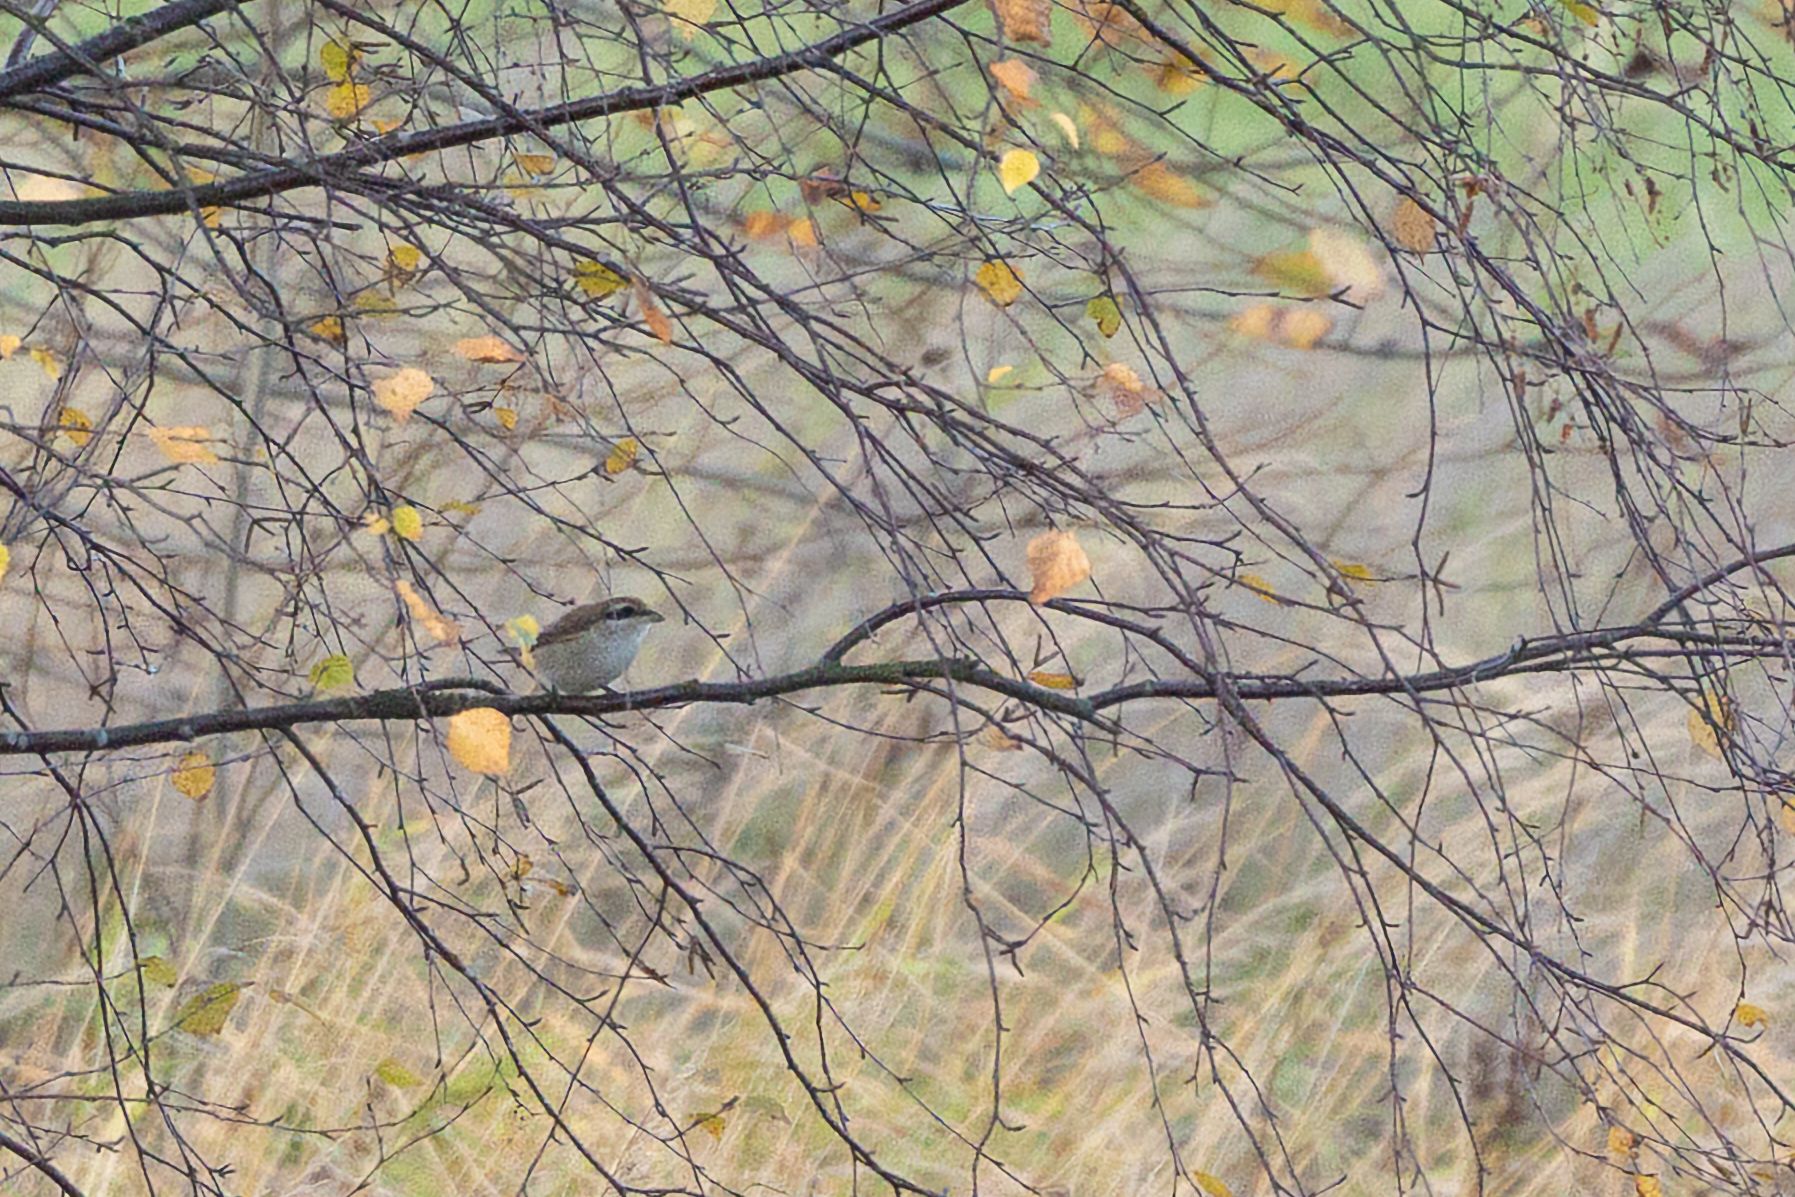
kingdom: Animalia
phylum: Chordata
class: Aves
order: Passeriformes
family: Laniidae
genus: Lanius
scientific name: Lanius cristatus
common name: Brown shrike
